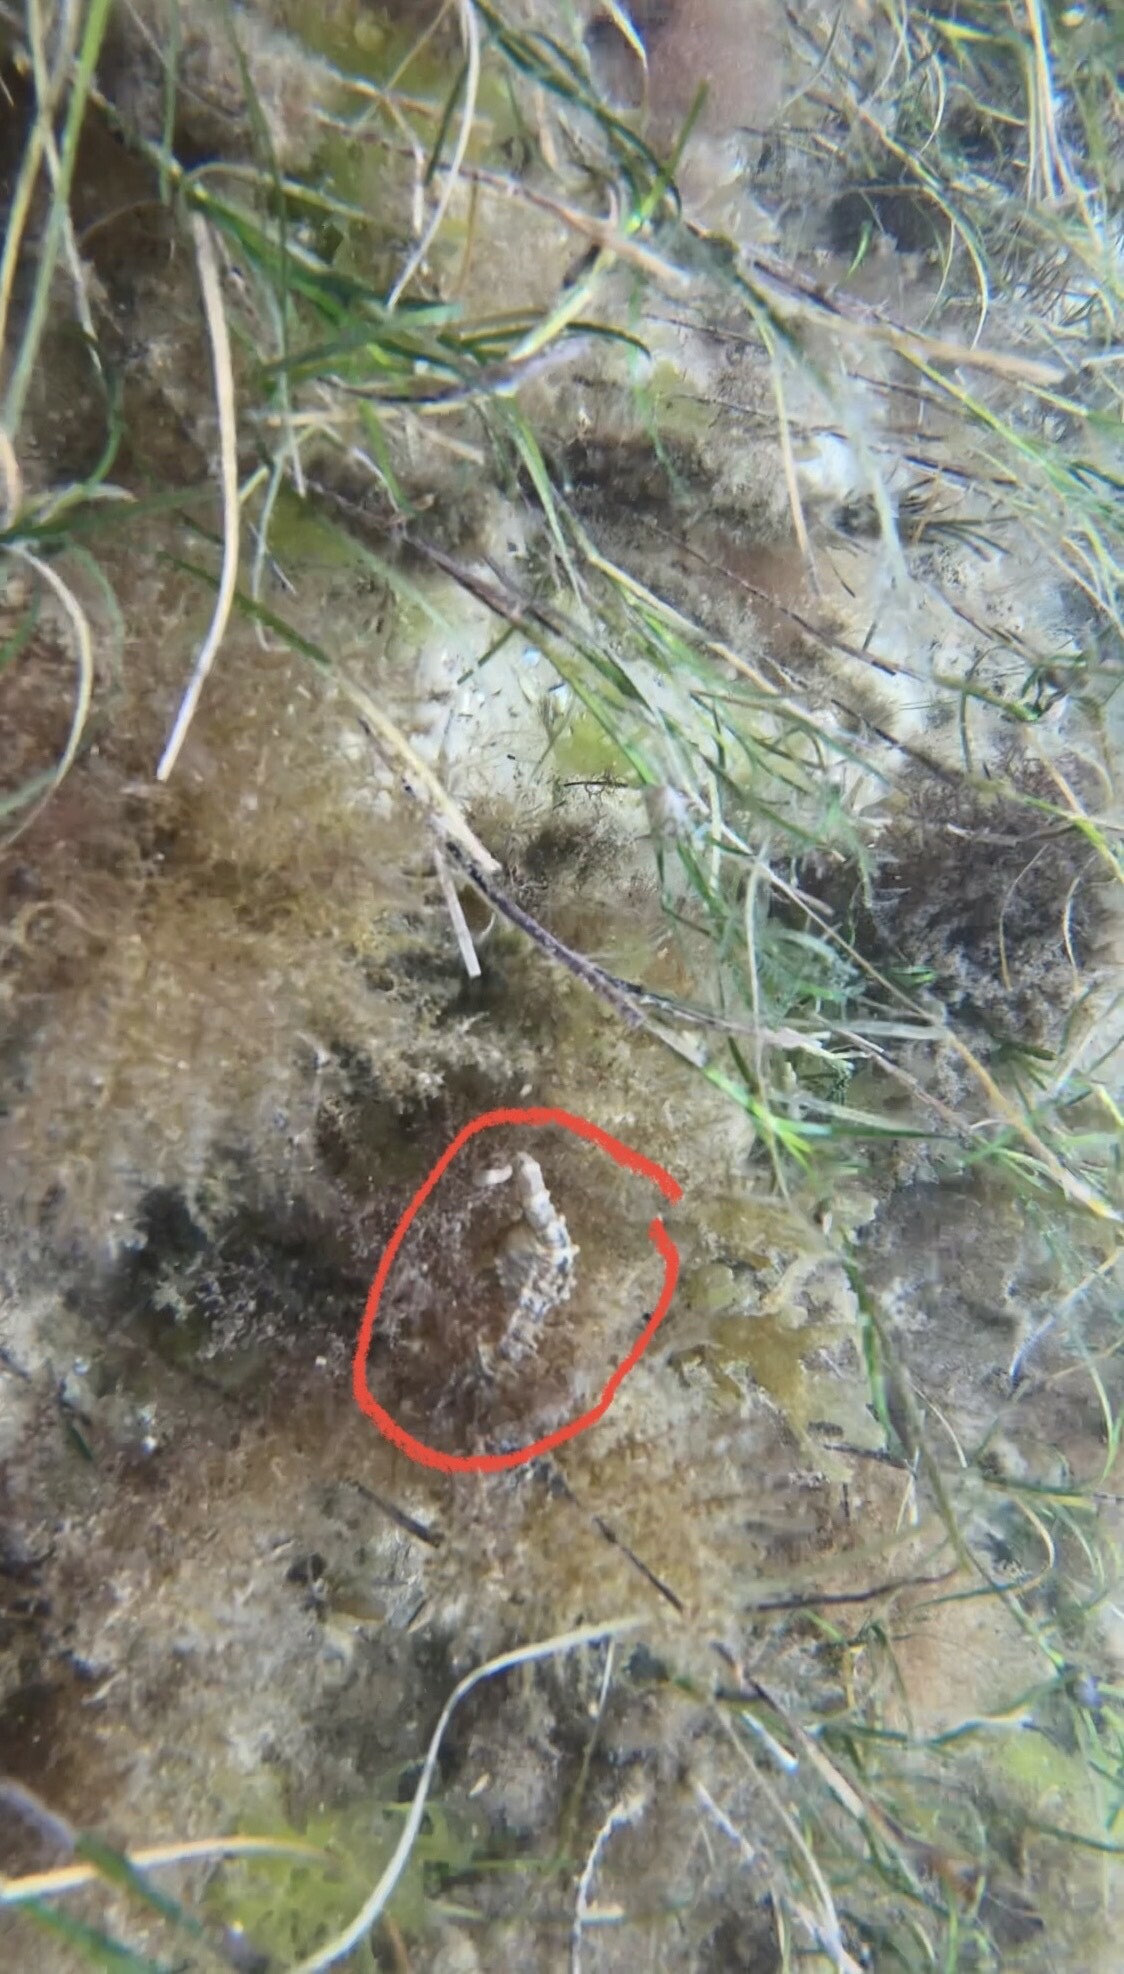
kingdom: Animalia
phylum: Chordata
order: Syngnathiformes
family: Syngnathidae
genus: Hippocampus
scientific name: Hippocampus breviceps
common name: Knobby seahorse
